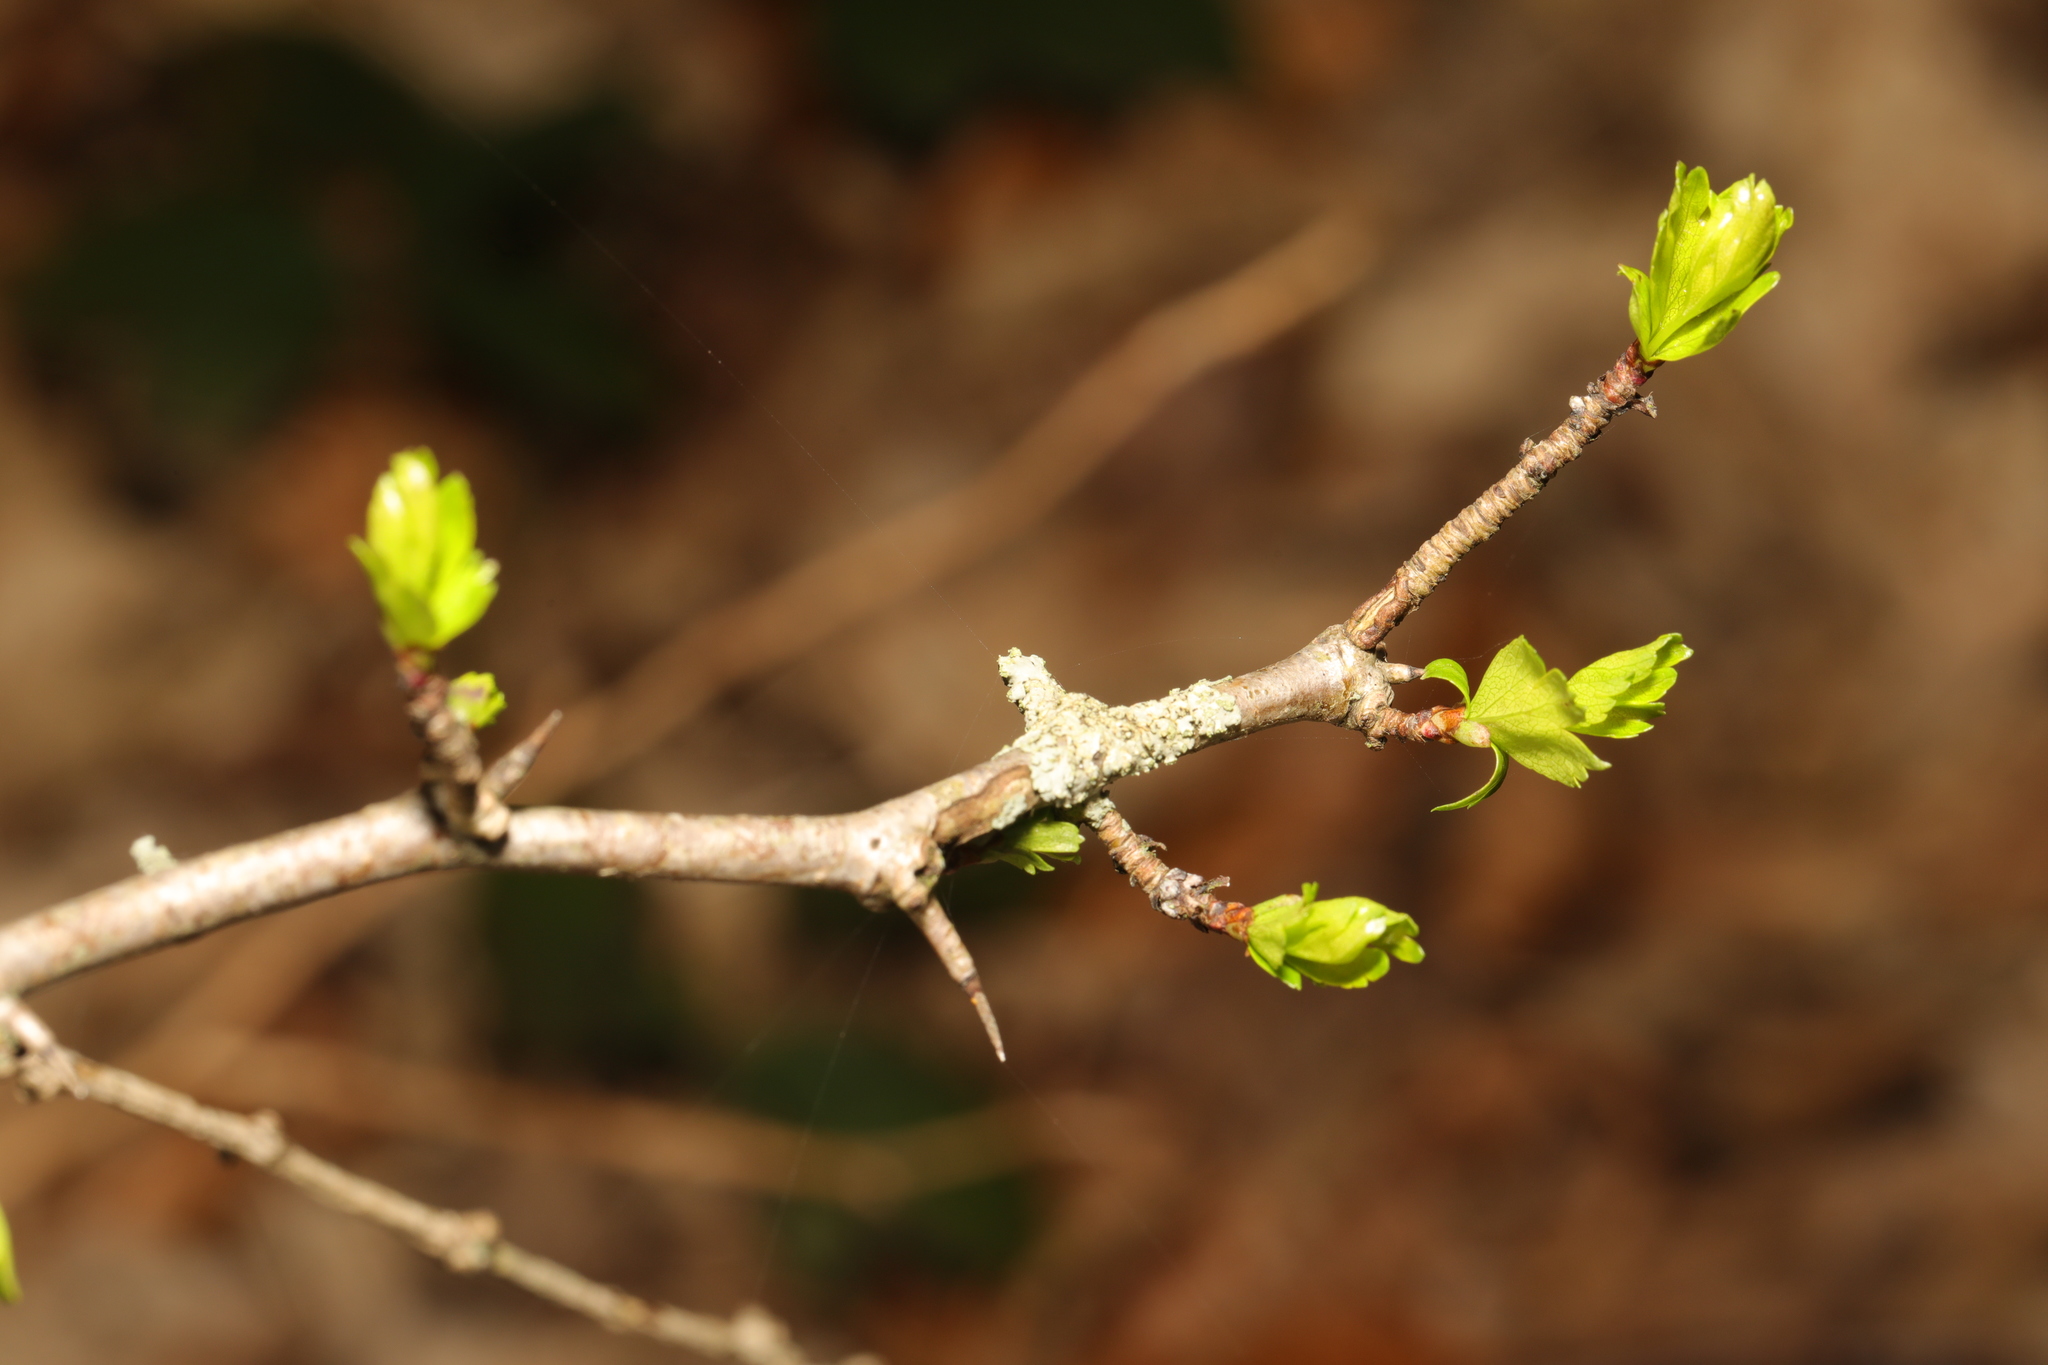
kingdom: Plantae
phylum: Tracheophyta
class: Magnoliopsida
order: Rosales
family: Rosaceae
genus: Crataegus
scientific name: Crataegus monogyna
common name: Hawthorn
